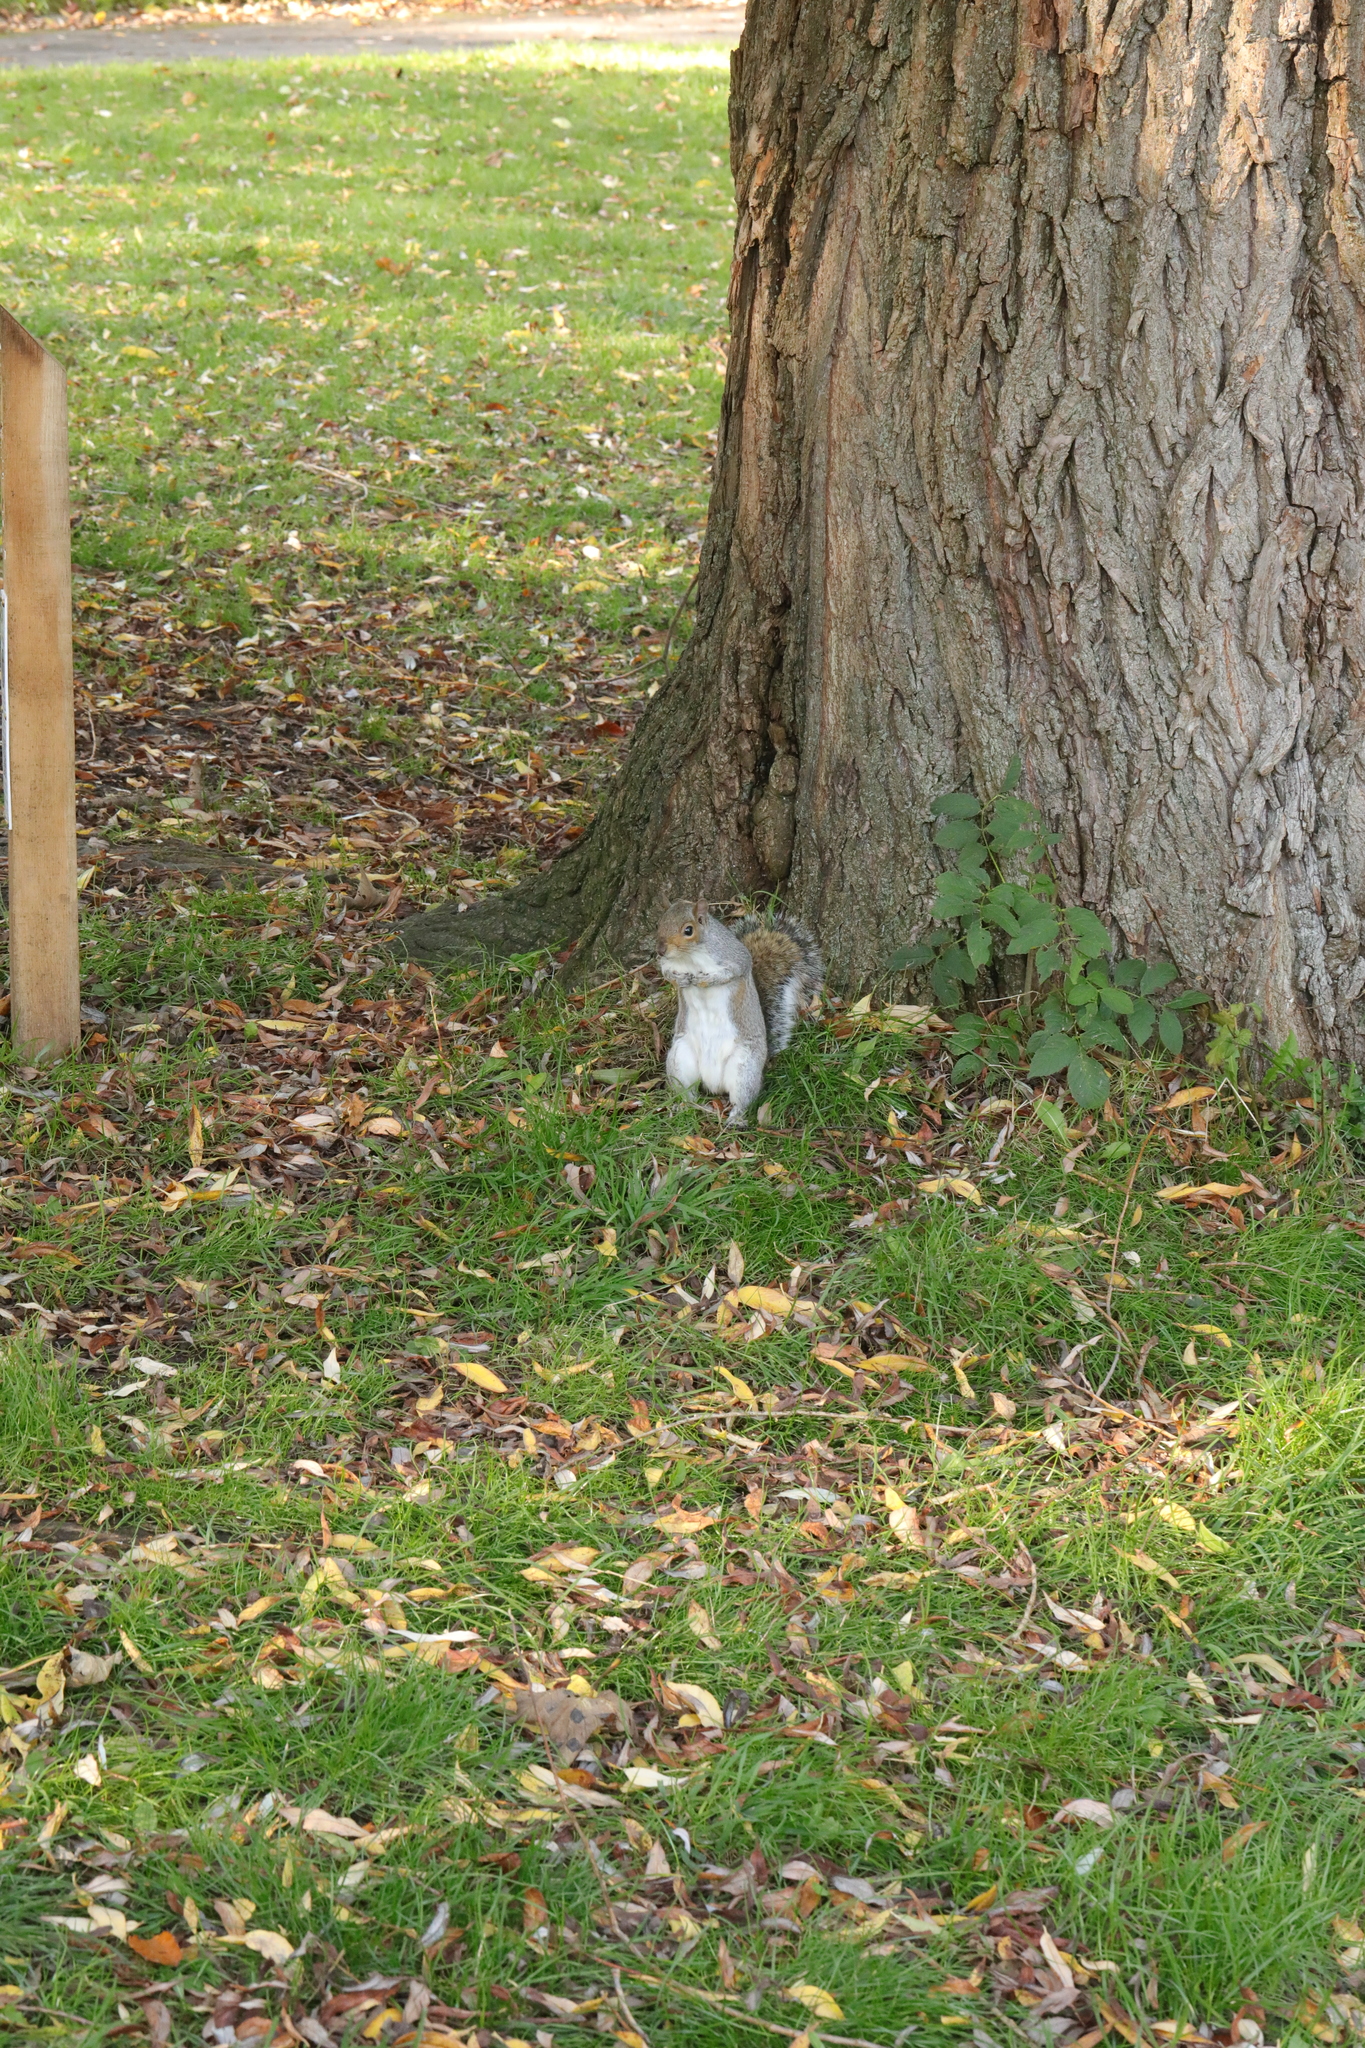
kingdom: Animalia
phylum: Chordata
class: Mammalia
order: Rodentia
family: Sciuridae
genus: Sciurus
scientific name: Sciurus carolinensis
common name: Eastern gray squirrel
